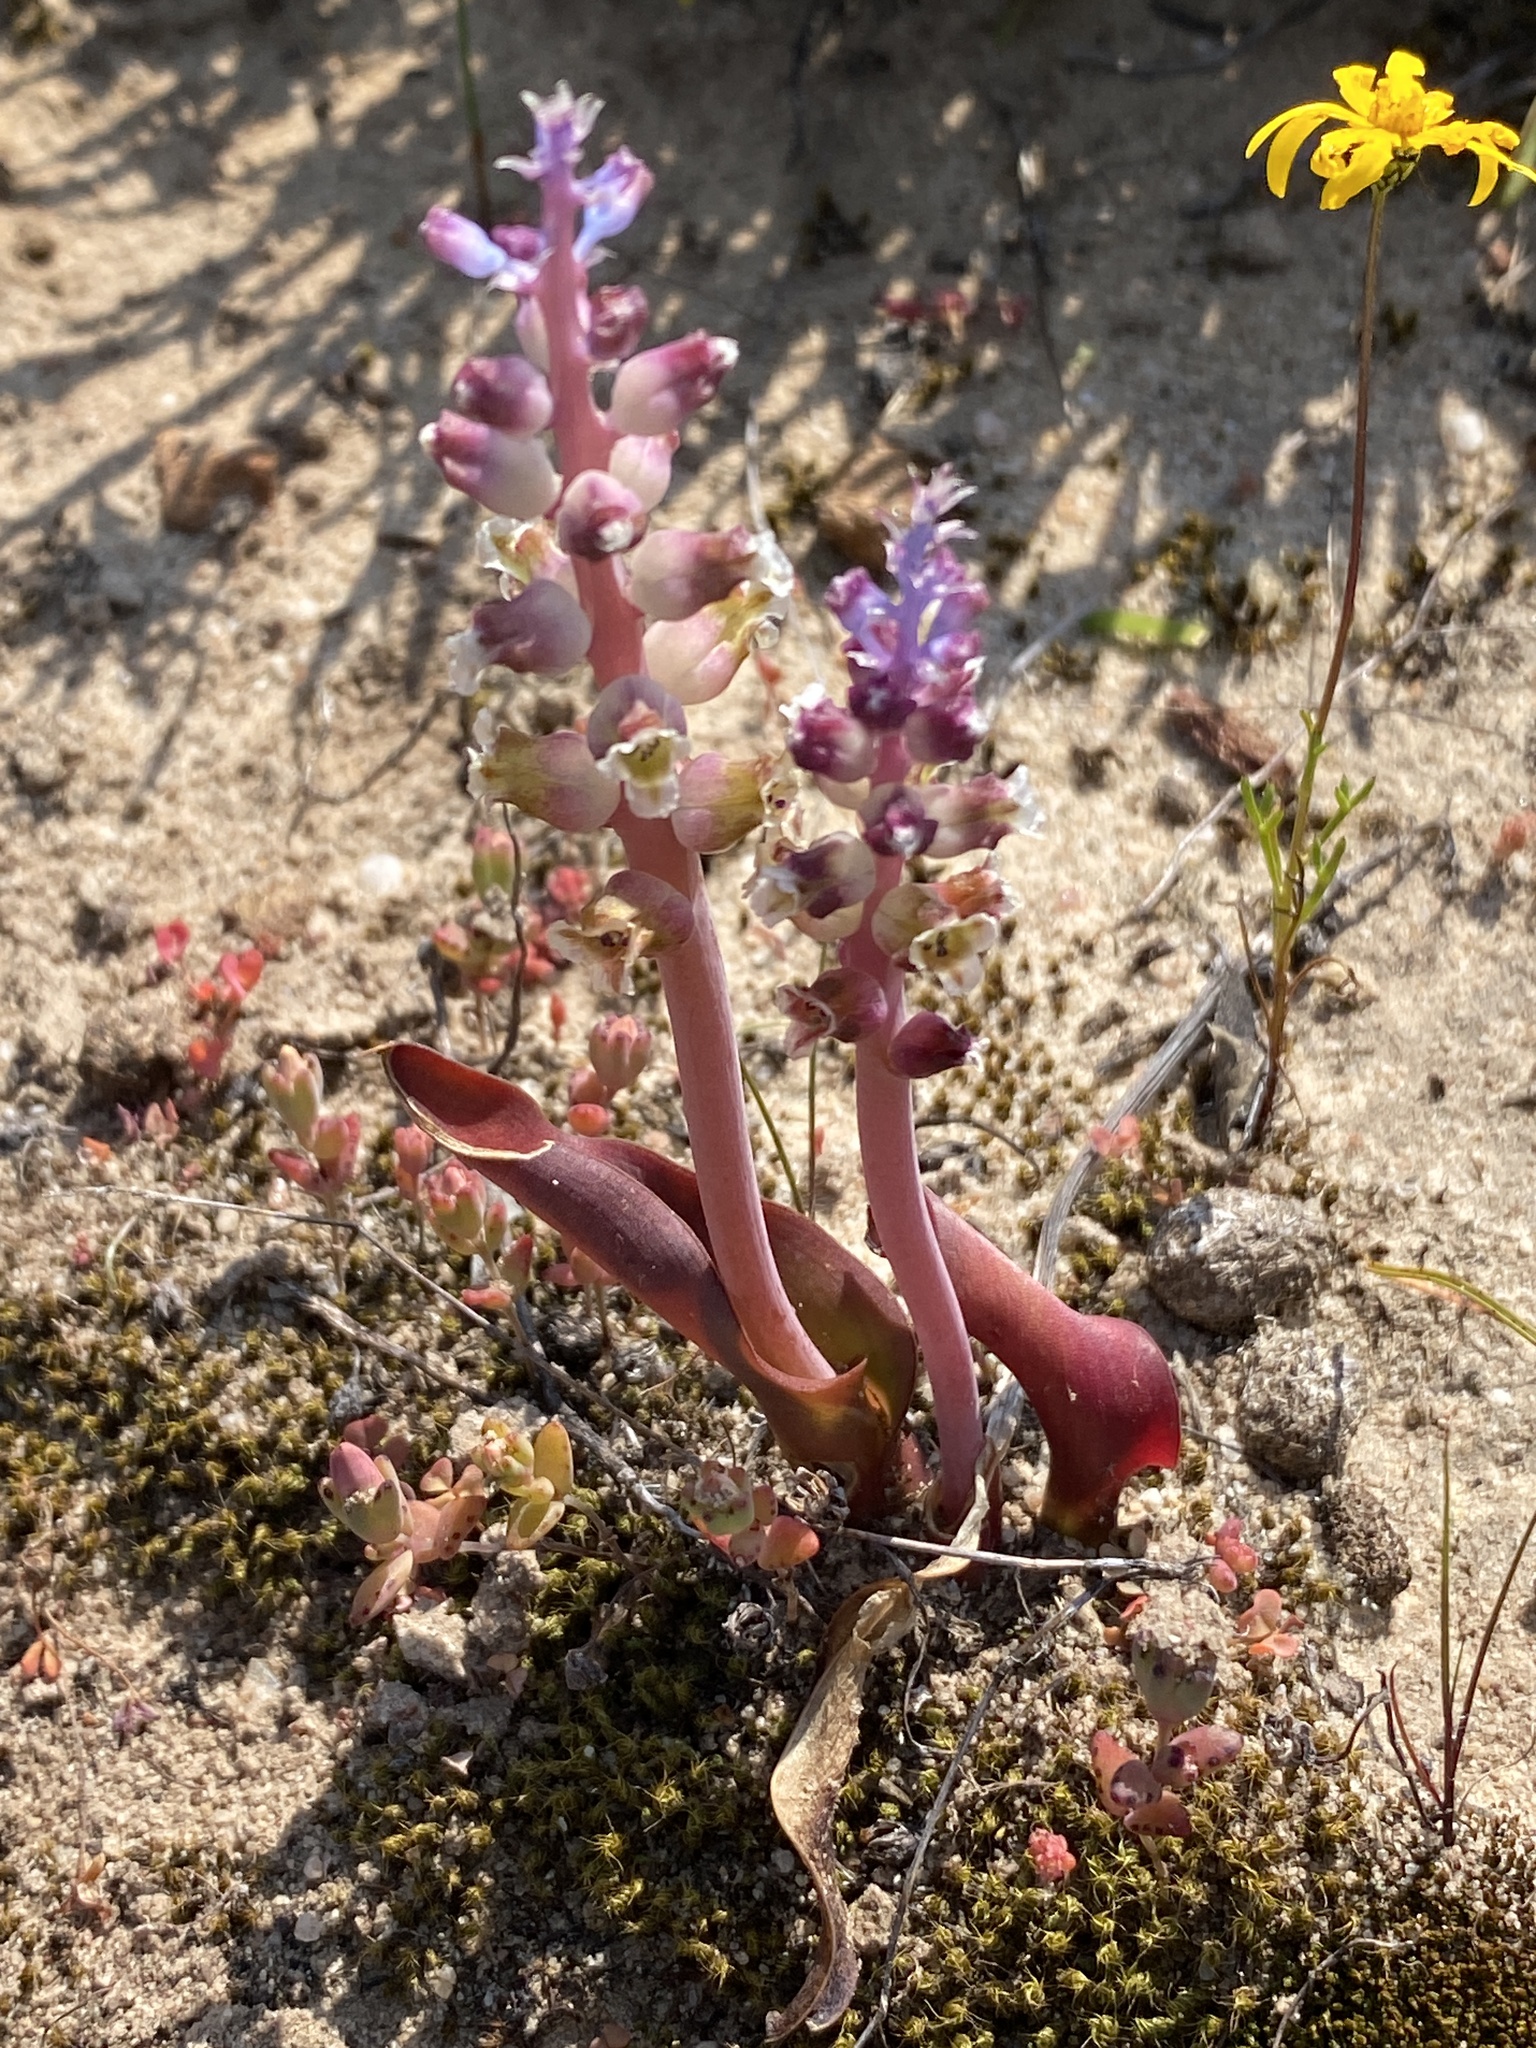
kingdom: Plantae
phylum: Tracheophyta
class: Liliopsida
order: Asparagales
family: Asparagaceae
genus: Lachenalia
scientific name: Lachenalia membranacea
